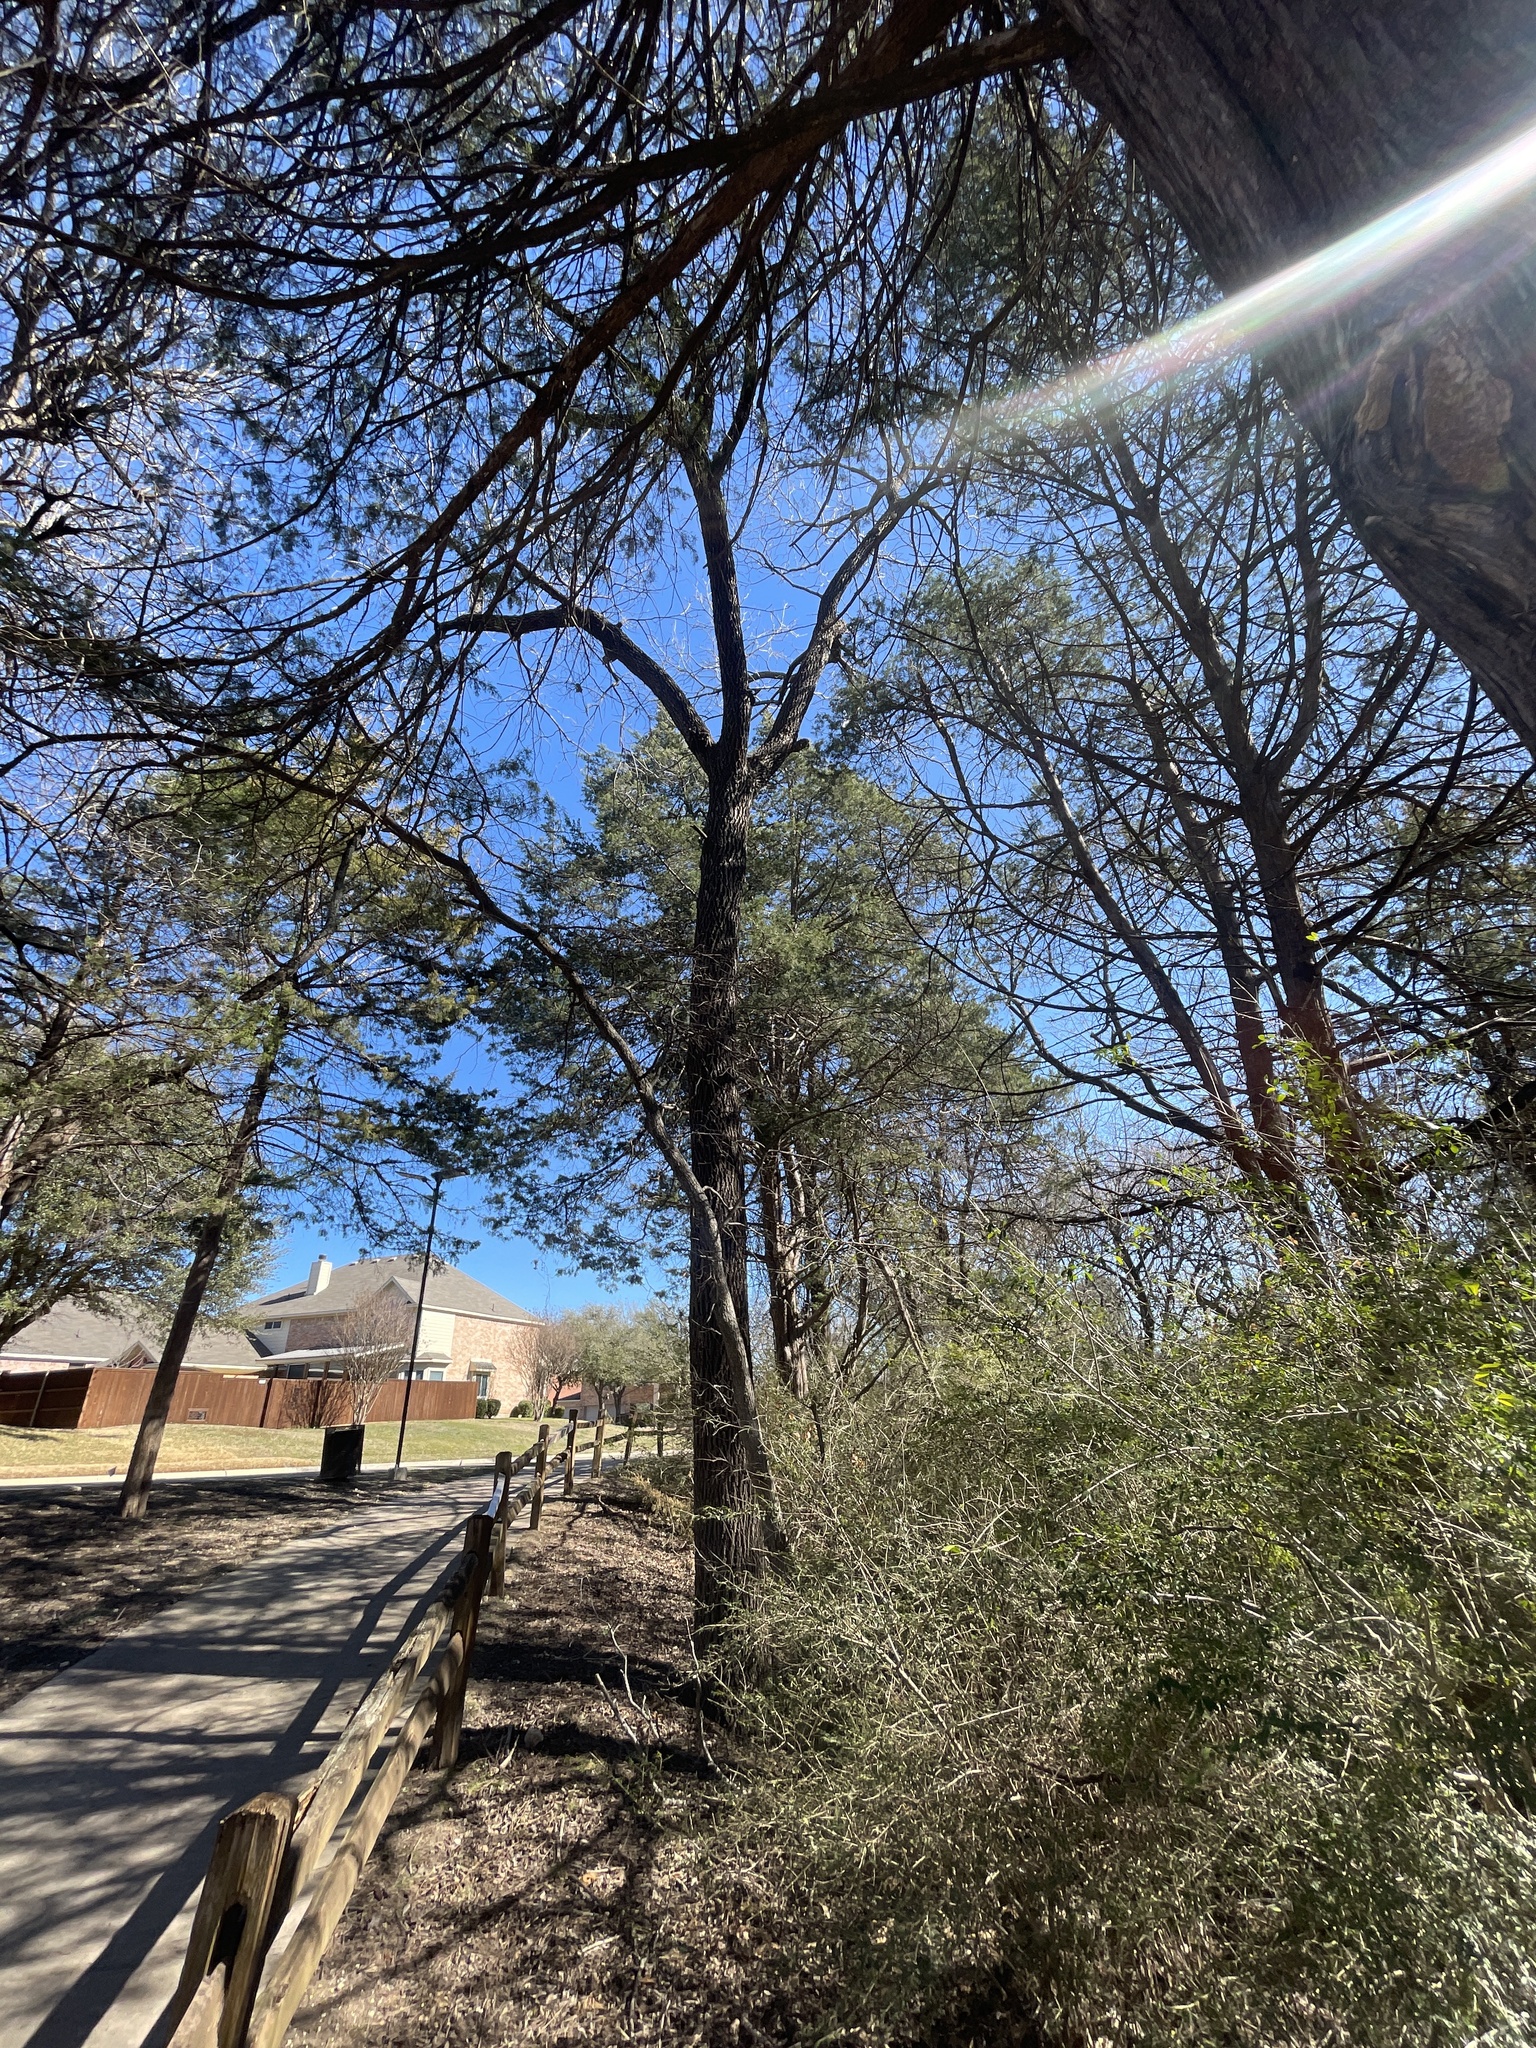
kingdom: Plantae
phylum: Tracheophyta
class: Magnoliopsida
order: Fagales
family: Juglandaceae
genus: Juglans
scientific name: Juglans nigra
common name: Black walnut
